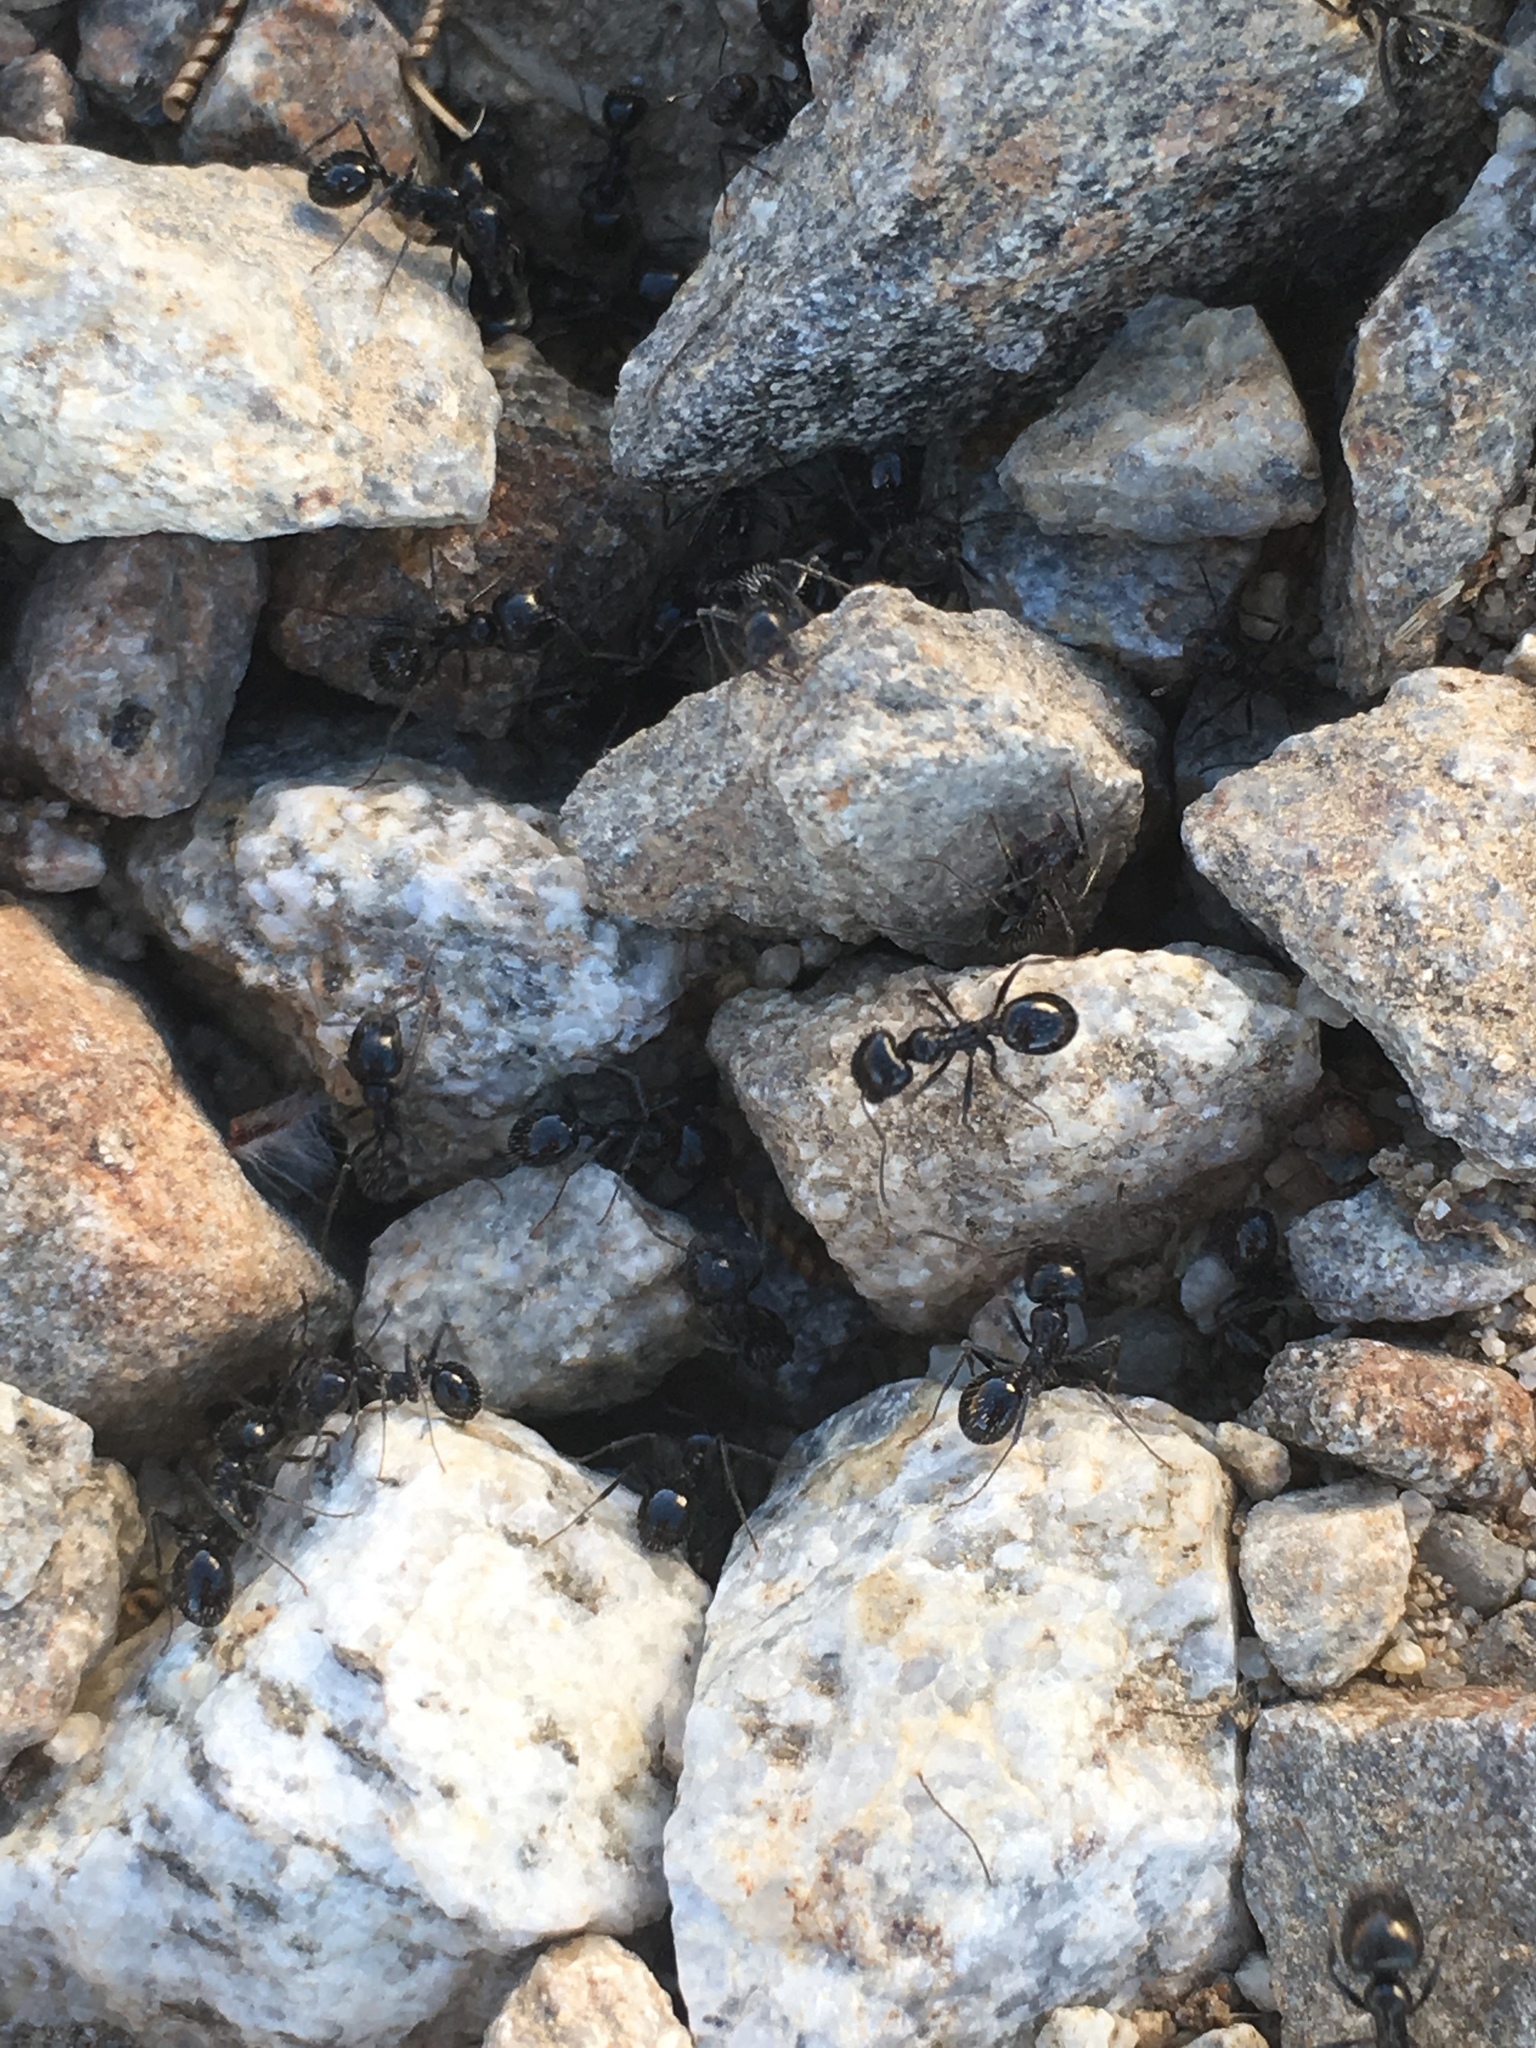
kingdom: Animalia
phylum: Arthropoda
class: Insecta
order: Hymenoptera
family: Formicidae
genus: Messor
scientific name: Messor pergandei
